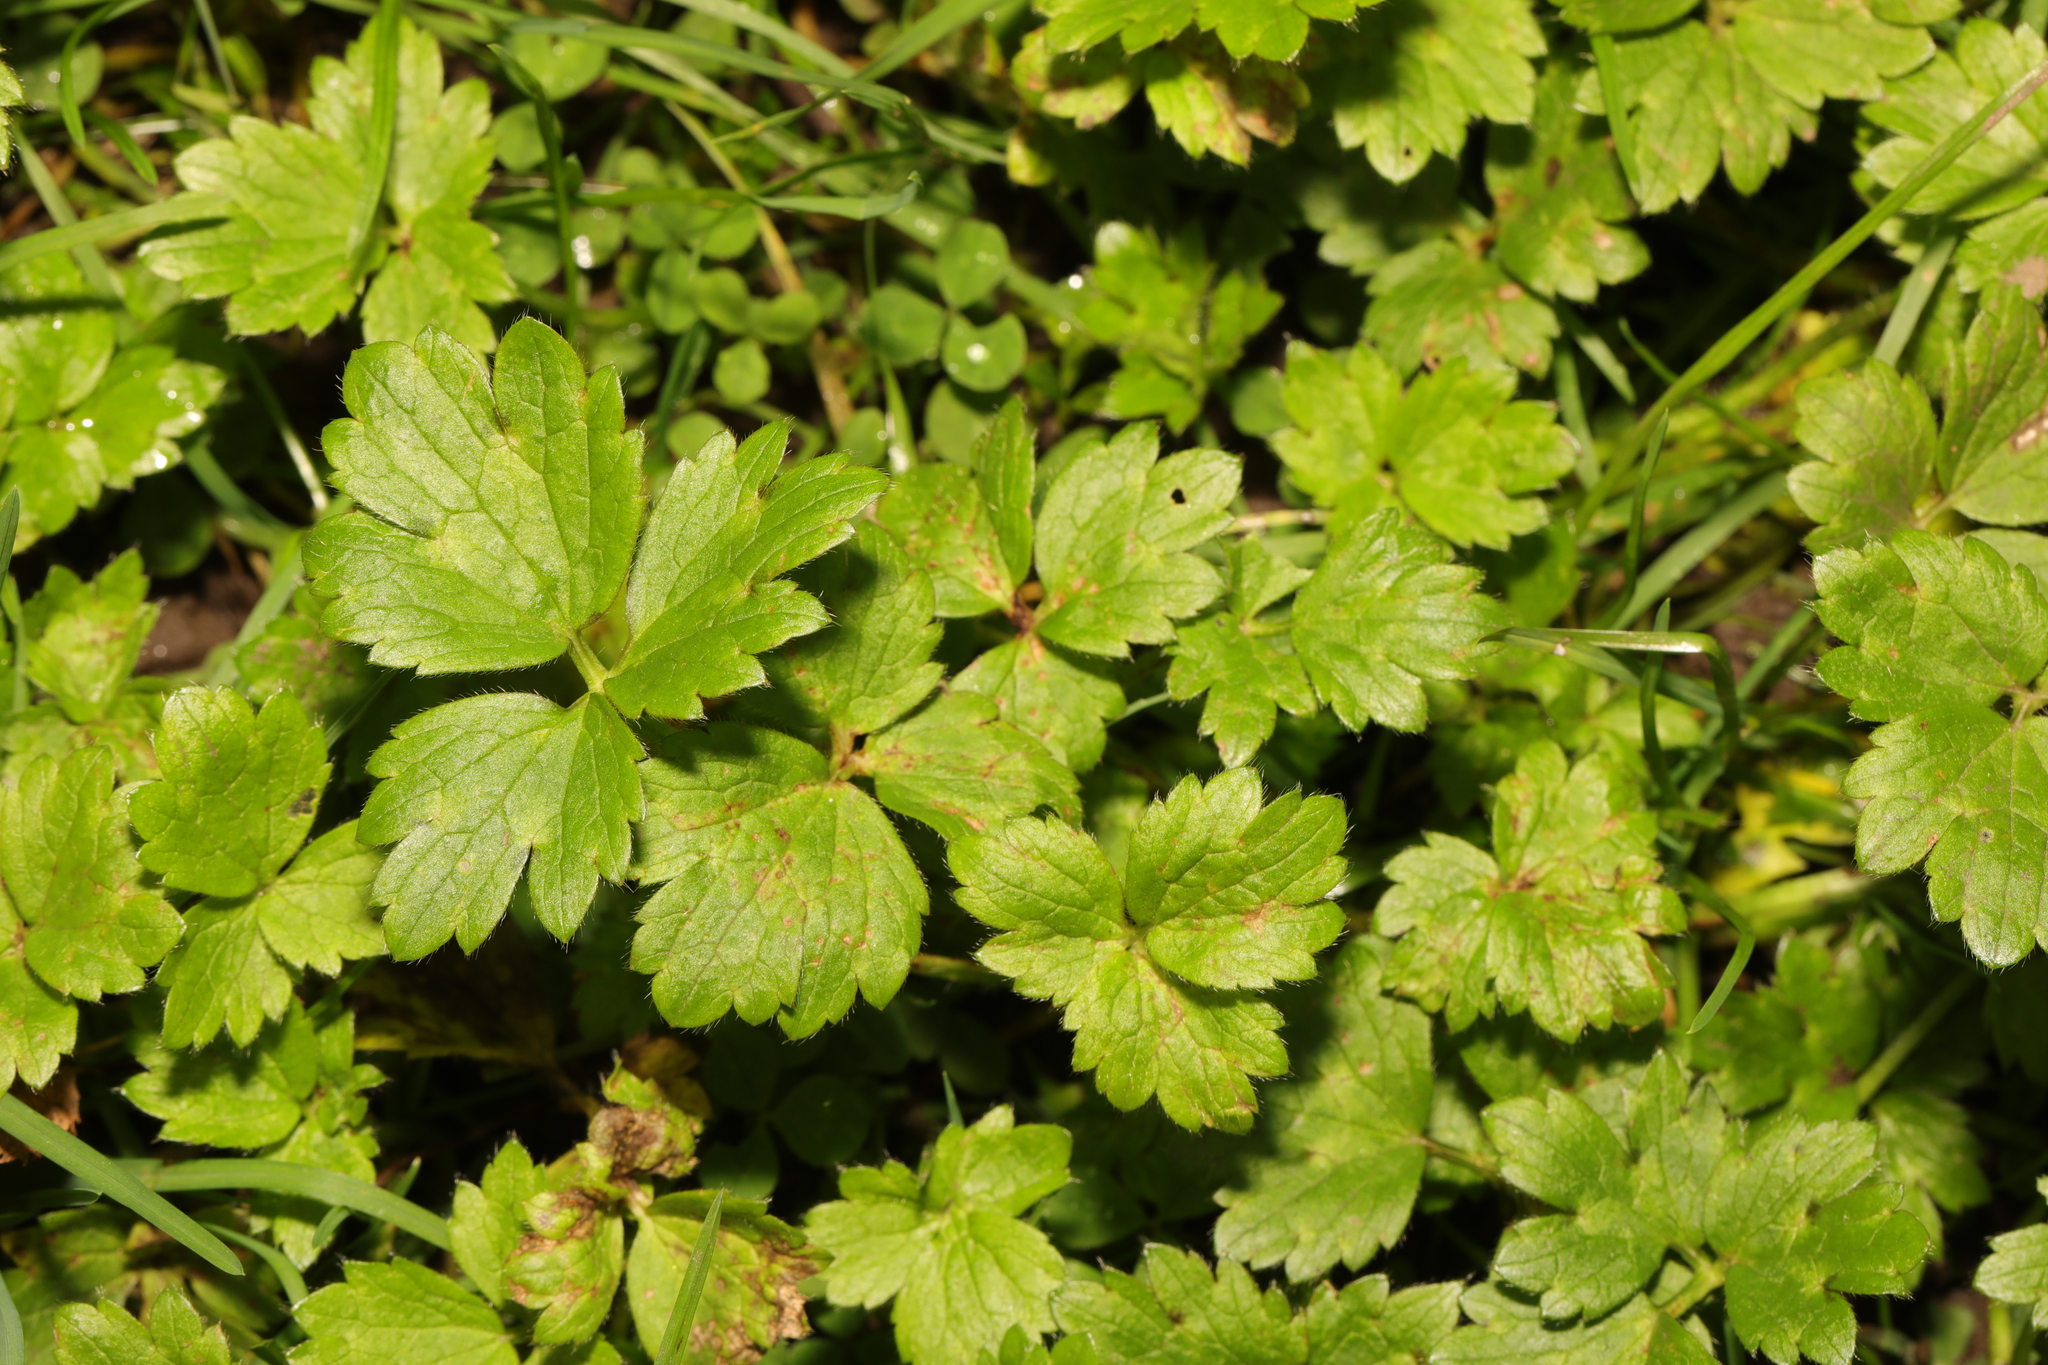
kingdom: Plantae
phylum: Tracheophyta
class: Magnoliopsida
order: Ranunculales
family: Ranunculaceae
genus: Ranunculus
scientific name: Ranunculus repens
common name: Creeping buttercup
